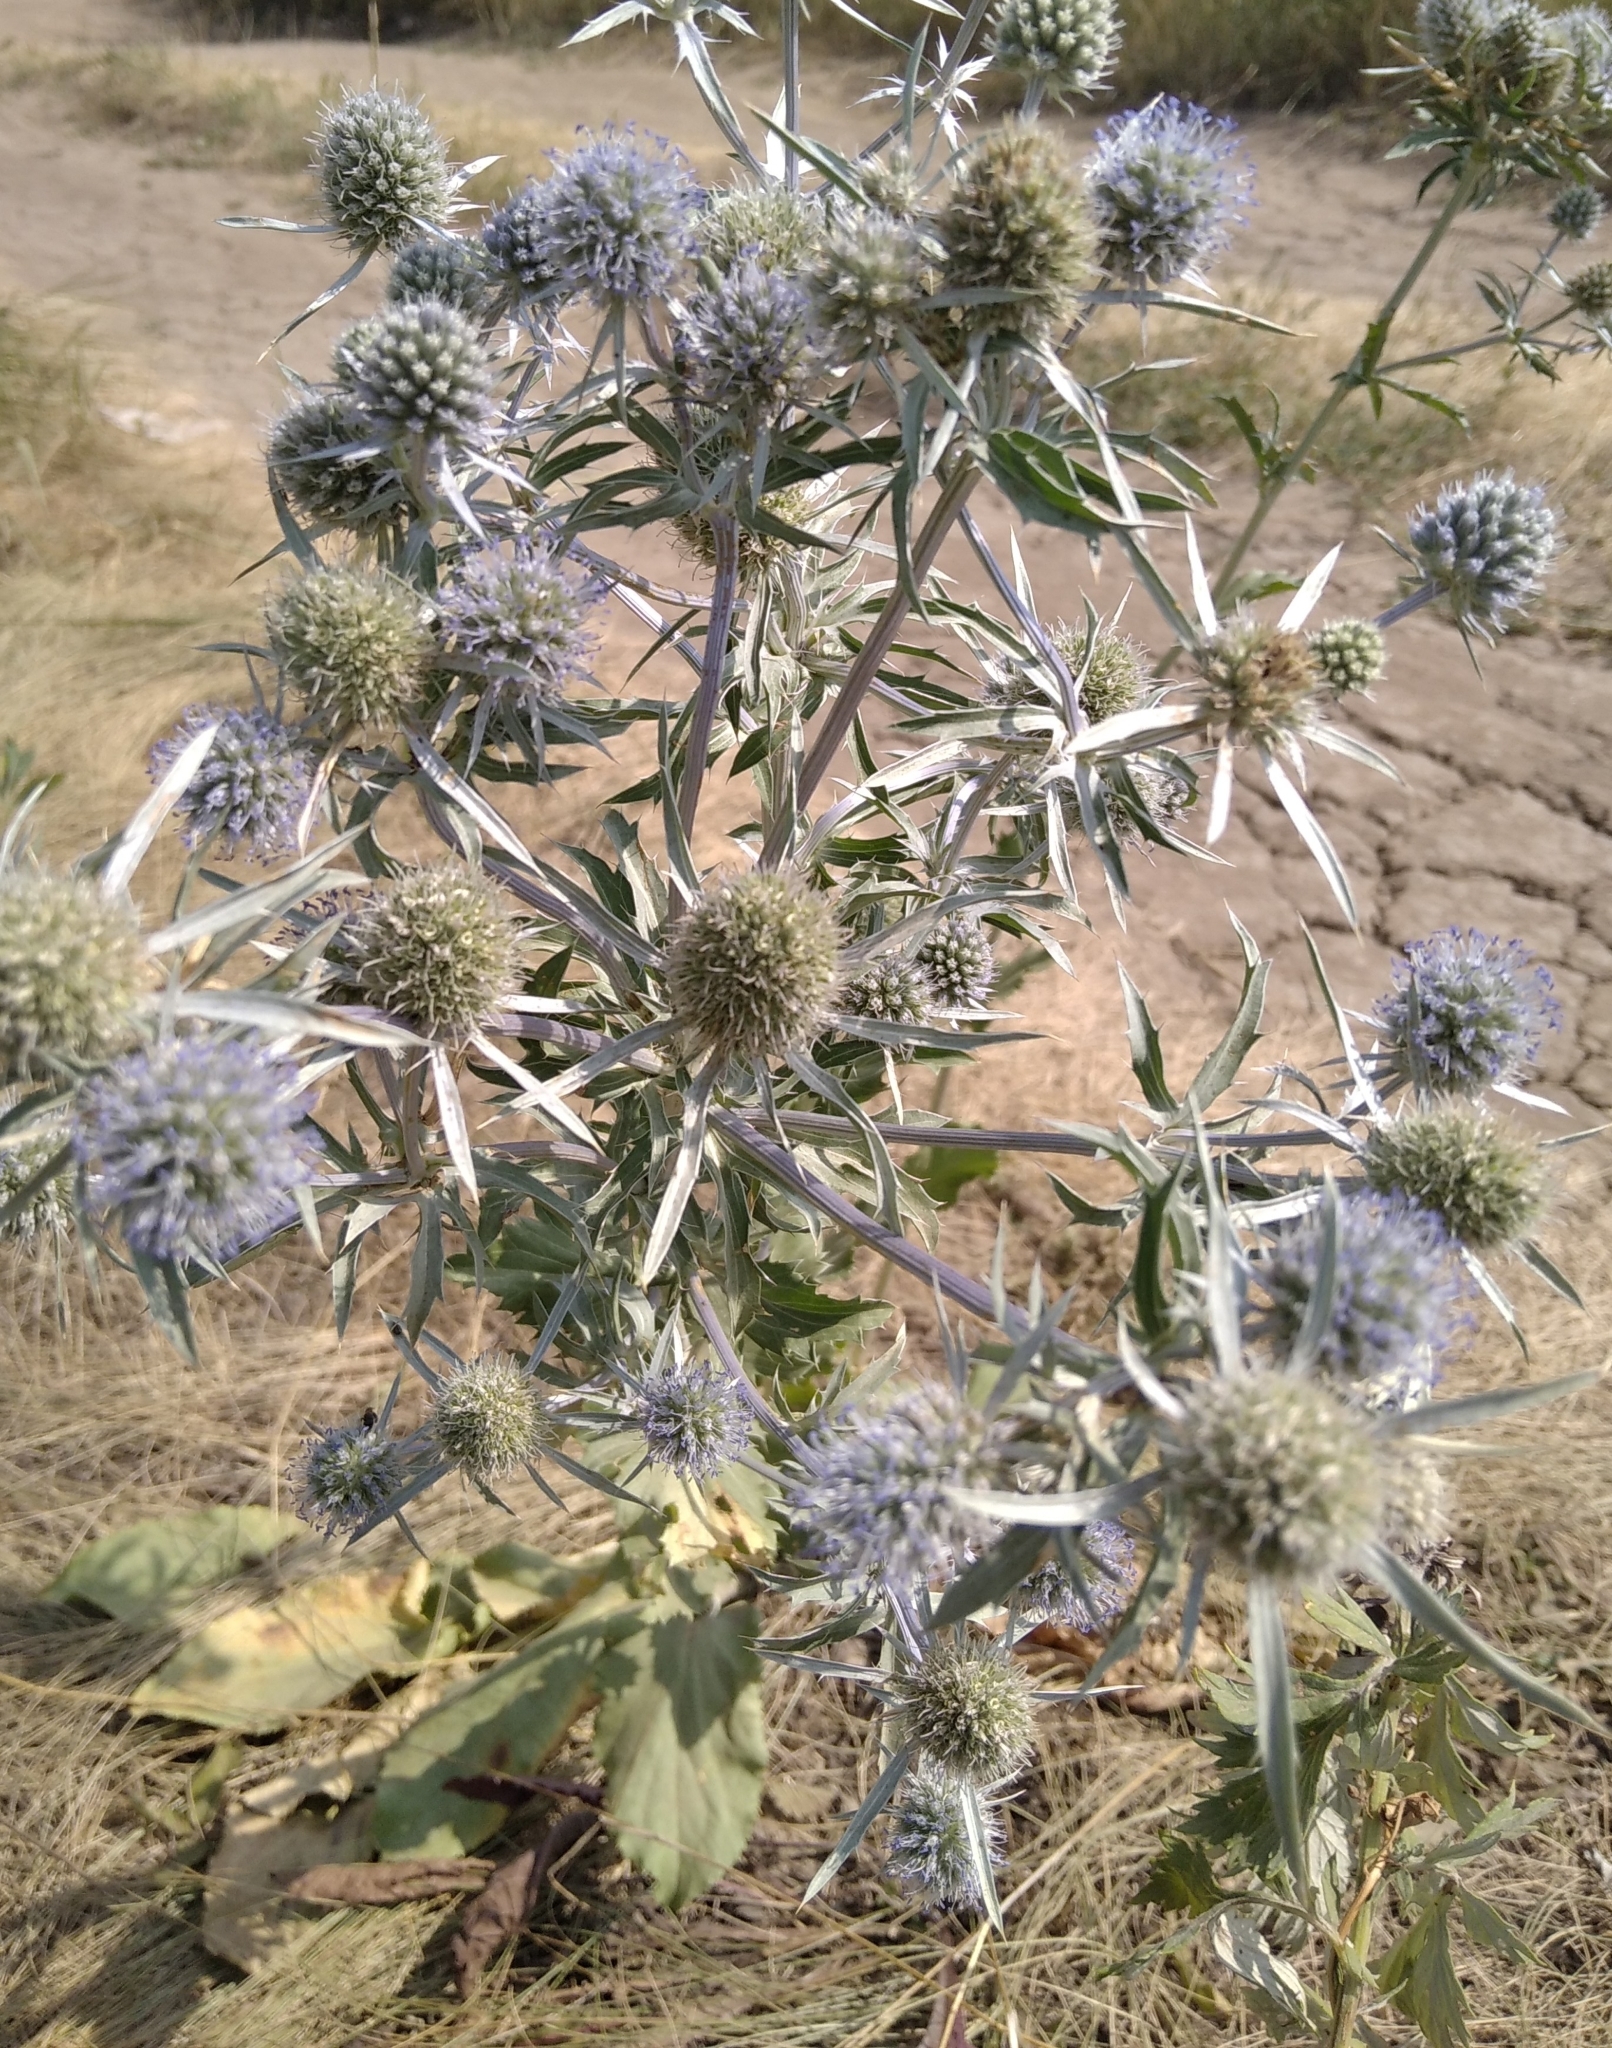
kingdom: Plantae
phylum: Tracheophyta
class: Magnoliopsida
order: Apiales
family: Apiaceae
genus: Eryngium
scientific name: Eryngium planum
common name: Blue eryngo
